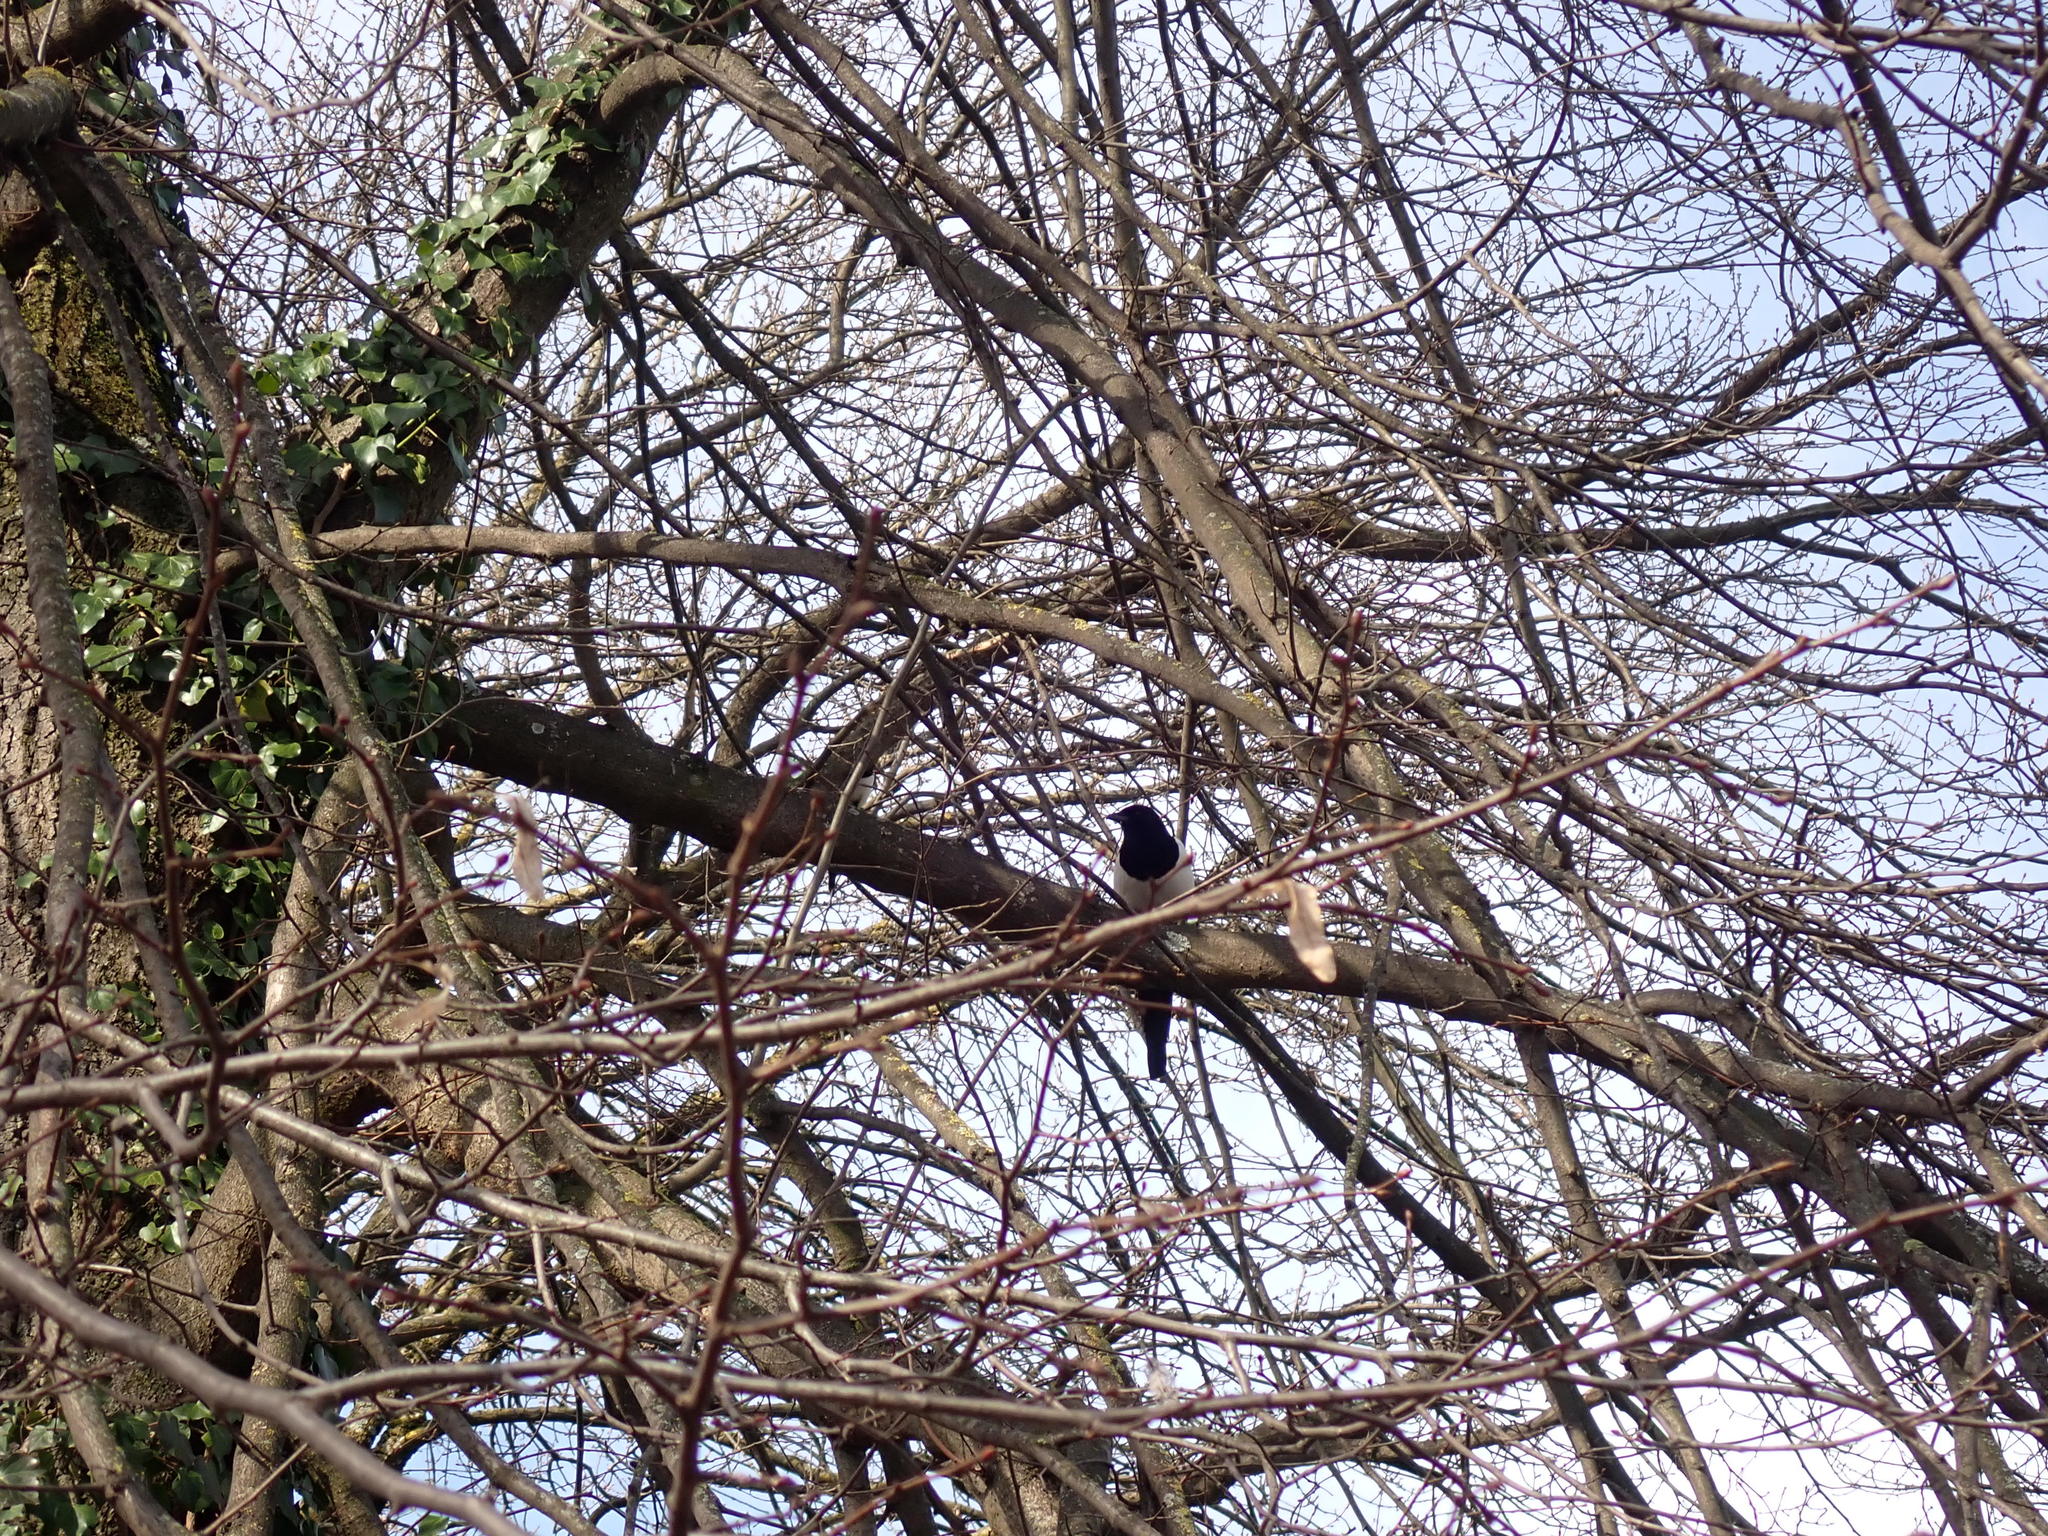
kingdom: Animalia
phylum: Chordata
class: Aves
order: Passeriformes
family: Corvidae
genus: Pica
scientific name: Pica pica
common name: Eurasian magpie
